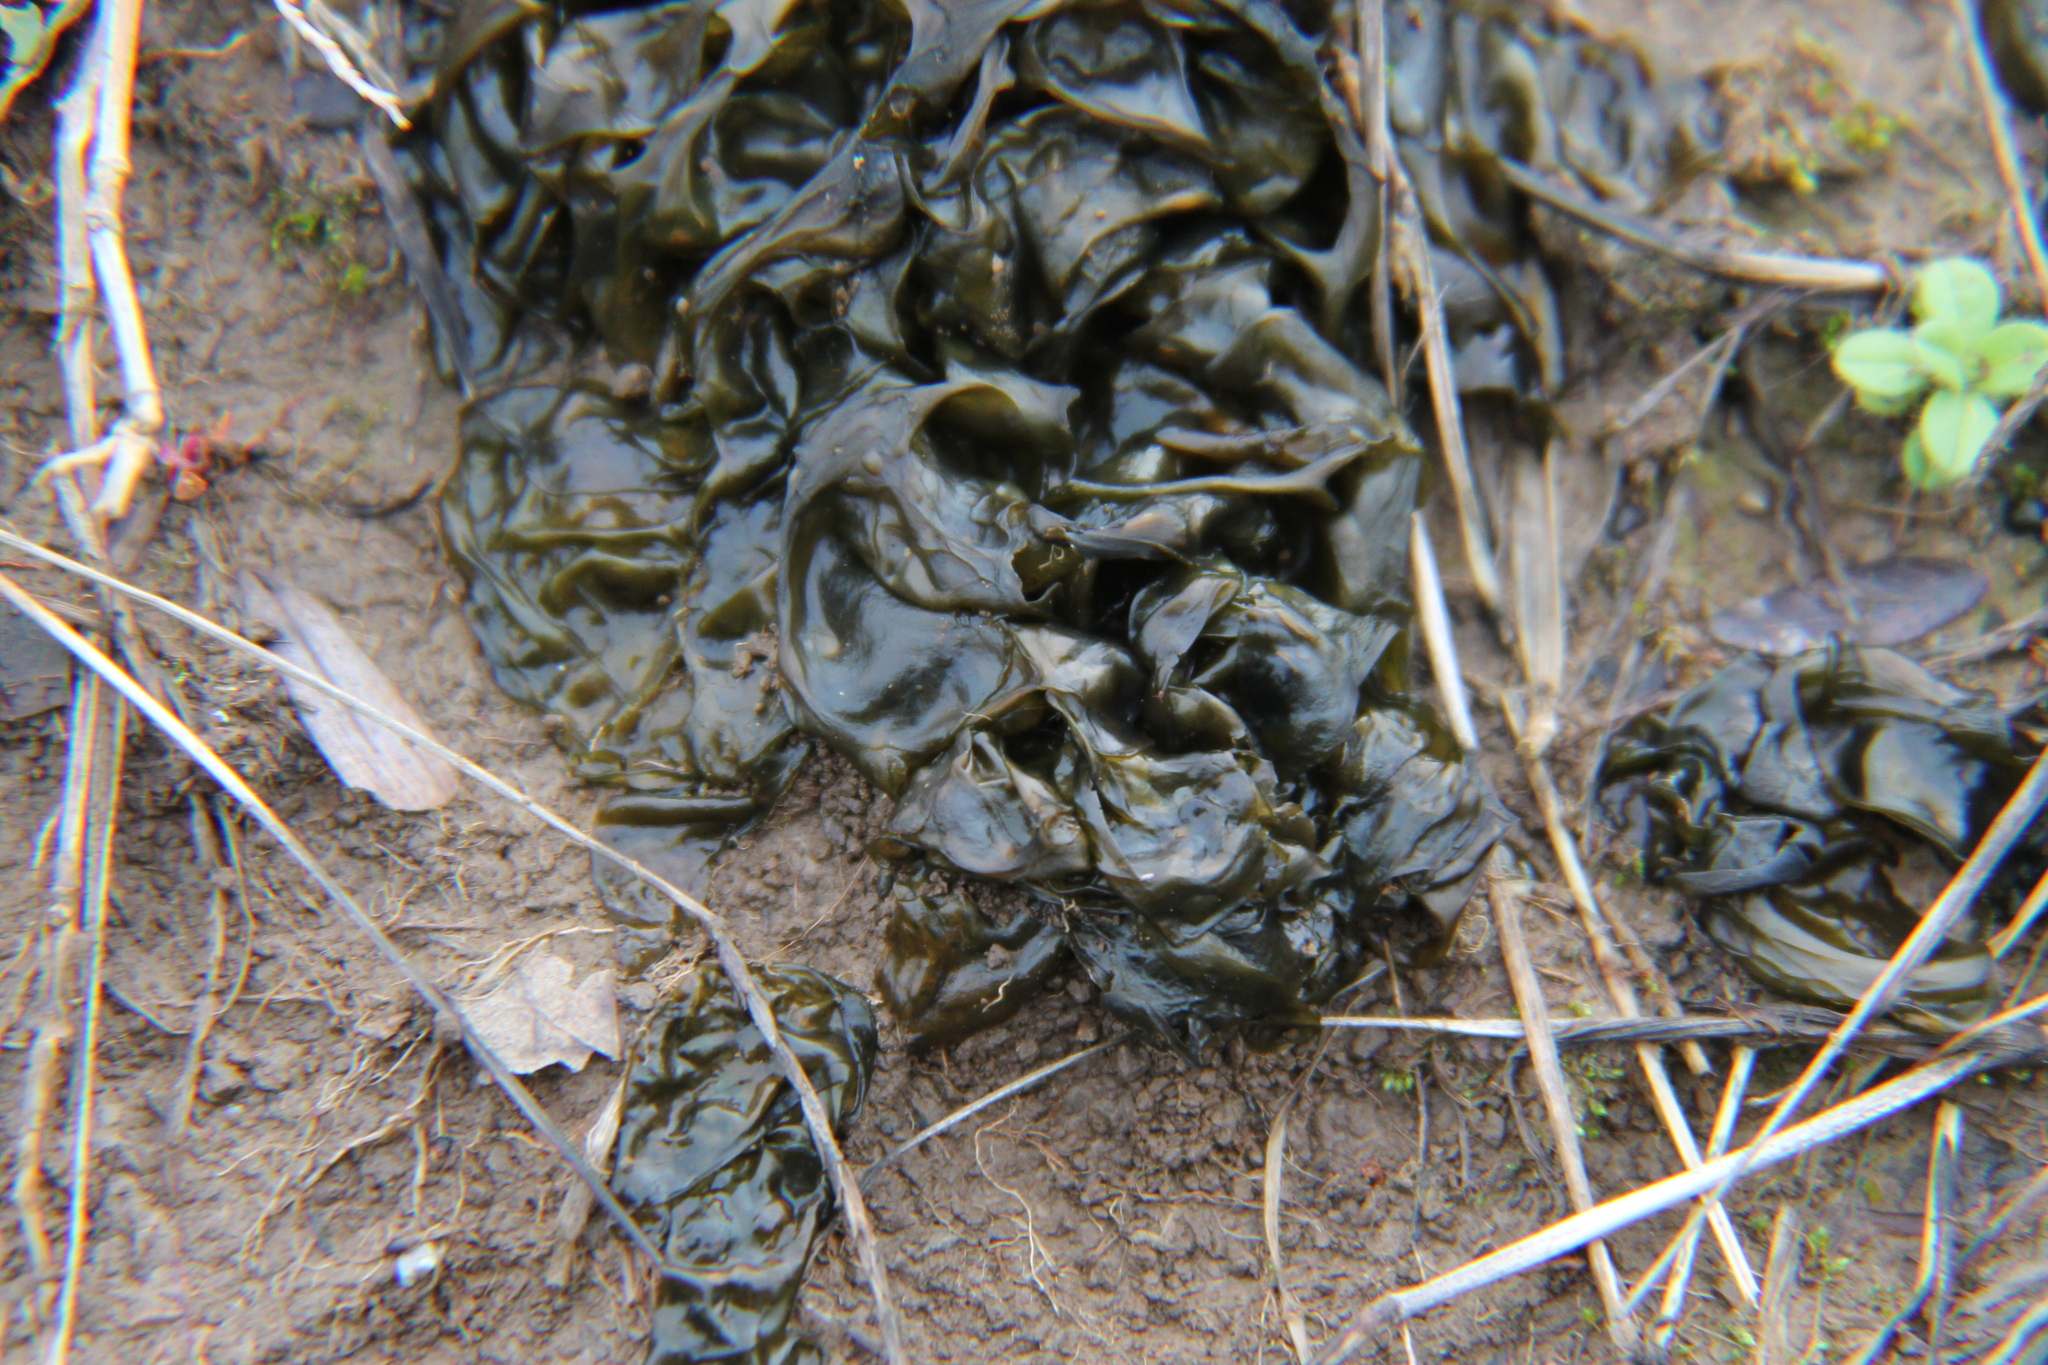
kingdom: Bacteria
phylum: Cyanobacteria
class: Cyanobacteriia
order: Cyanobacteriales
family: Nostocaceae
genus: Nostoc
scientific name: Nostoc commune
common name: Star jelly
